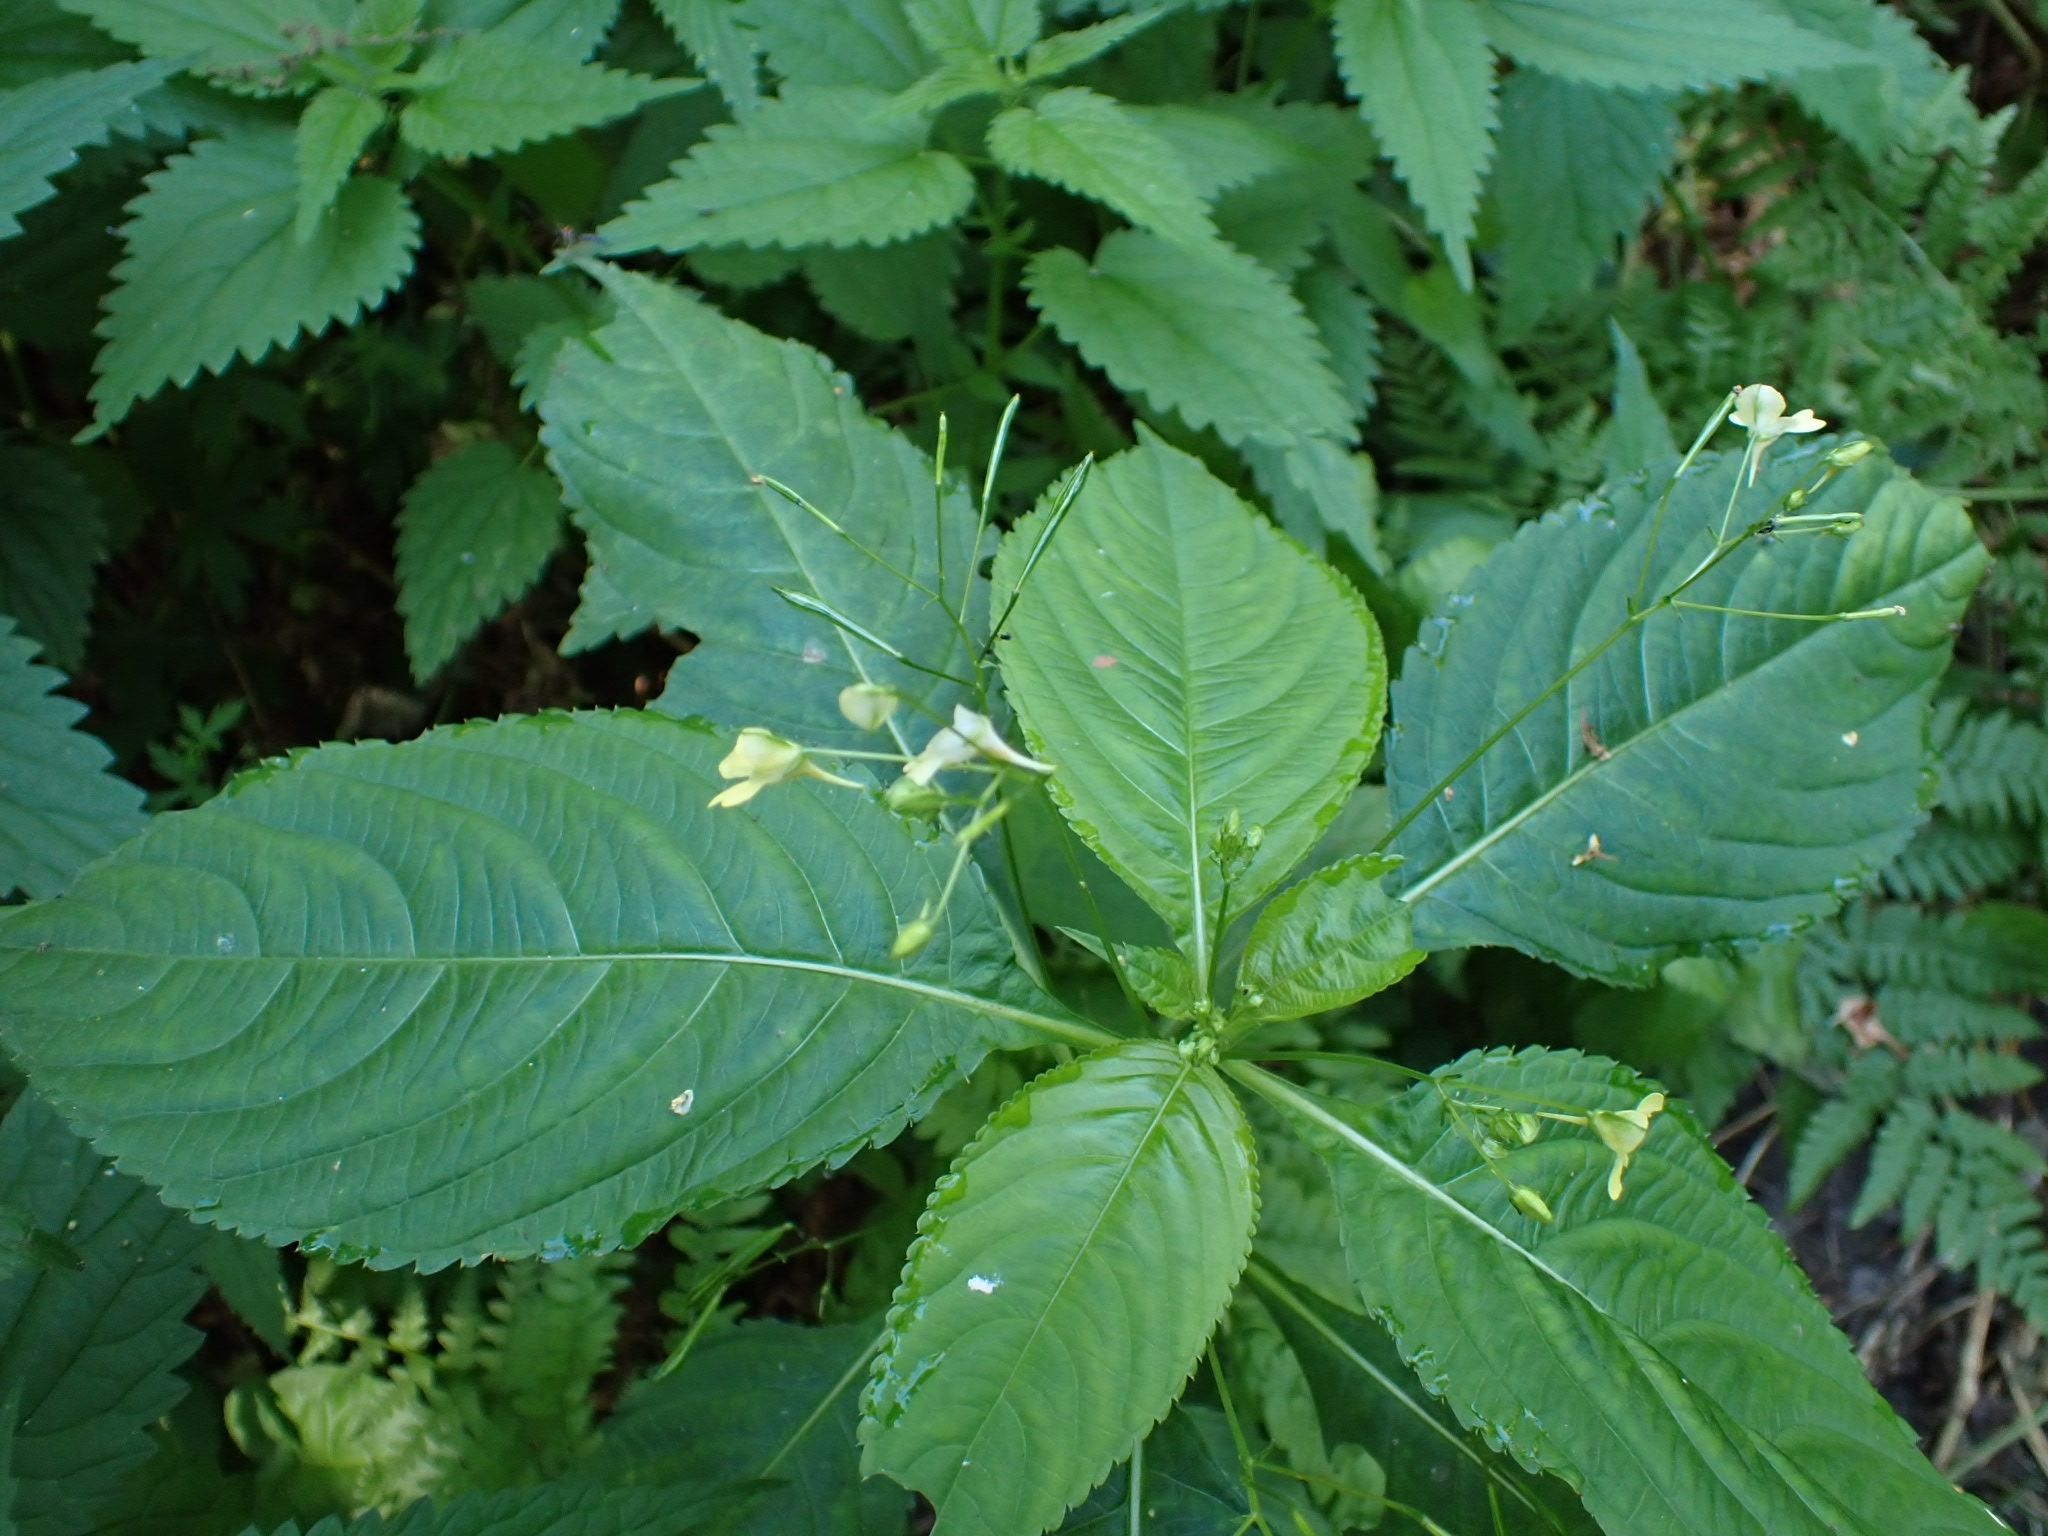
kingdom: Plantae
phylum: Tracheophyta
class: Magnoliopsida
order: Ericales
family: Balsaminaceae
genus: Impatiens
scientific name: Impatiens parviflora
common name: Small balsam
